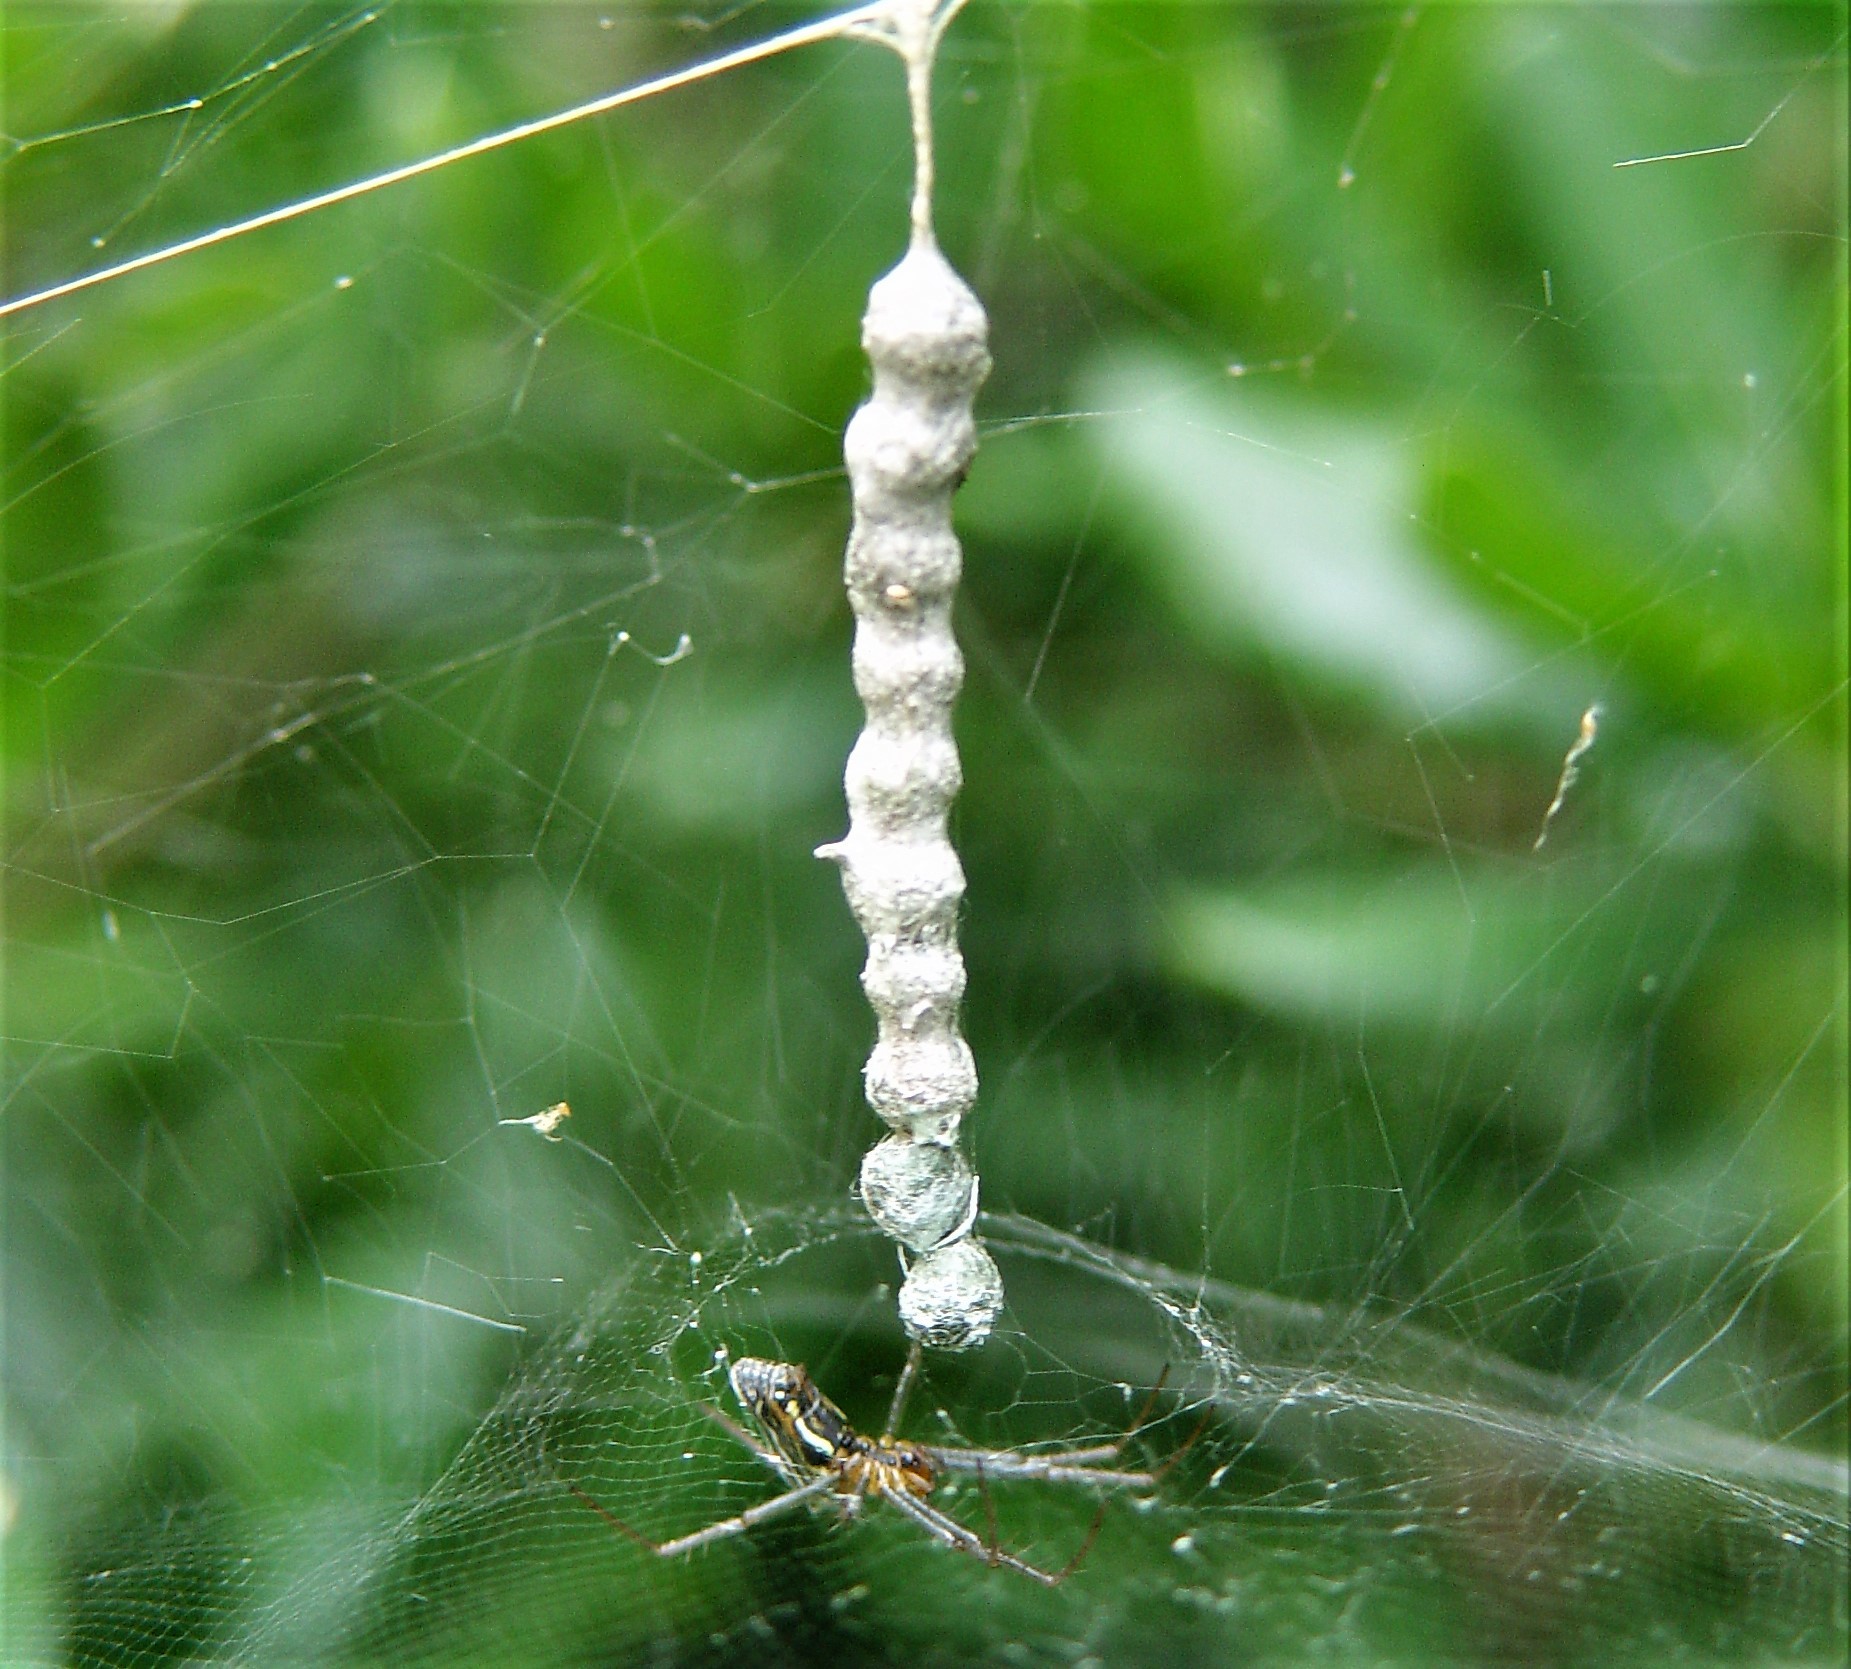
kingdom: Animalia
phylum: Arthropoda
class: Arachnida
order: Araneae
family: Araneidae
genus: Mecynogea
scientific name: Mecynogea lemniscata
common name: Orb weavers
